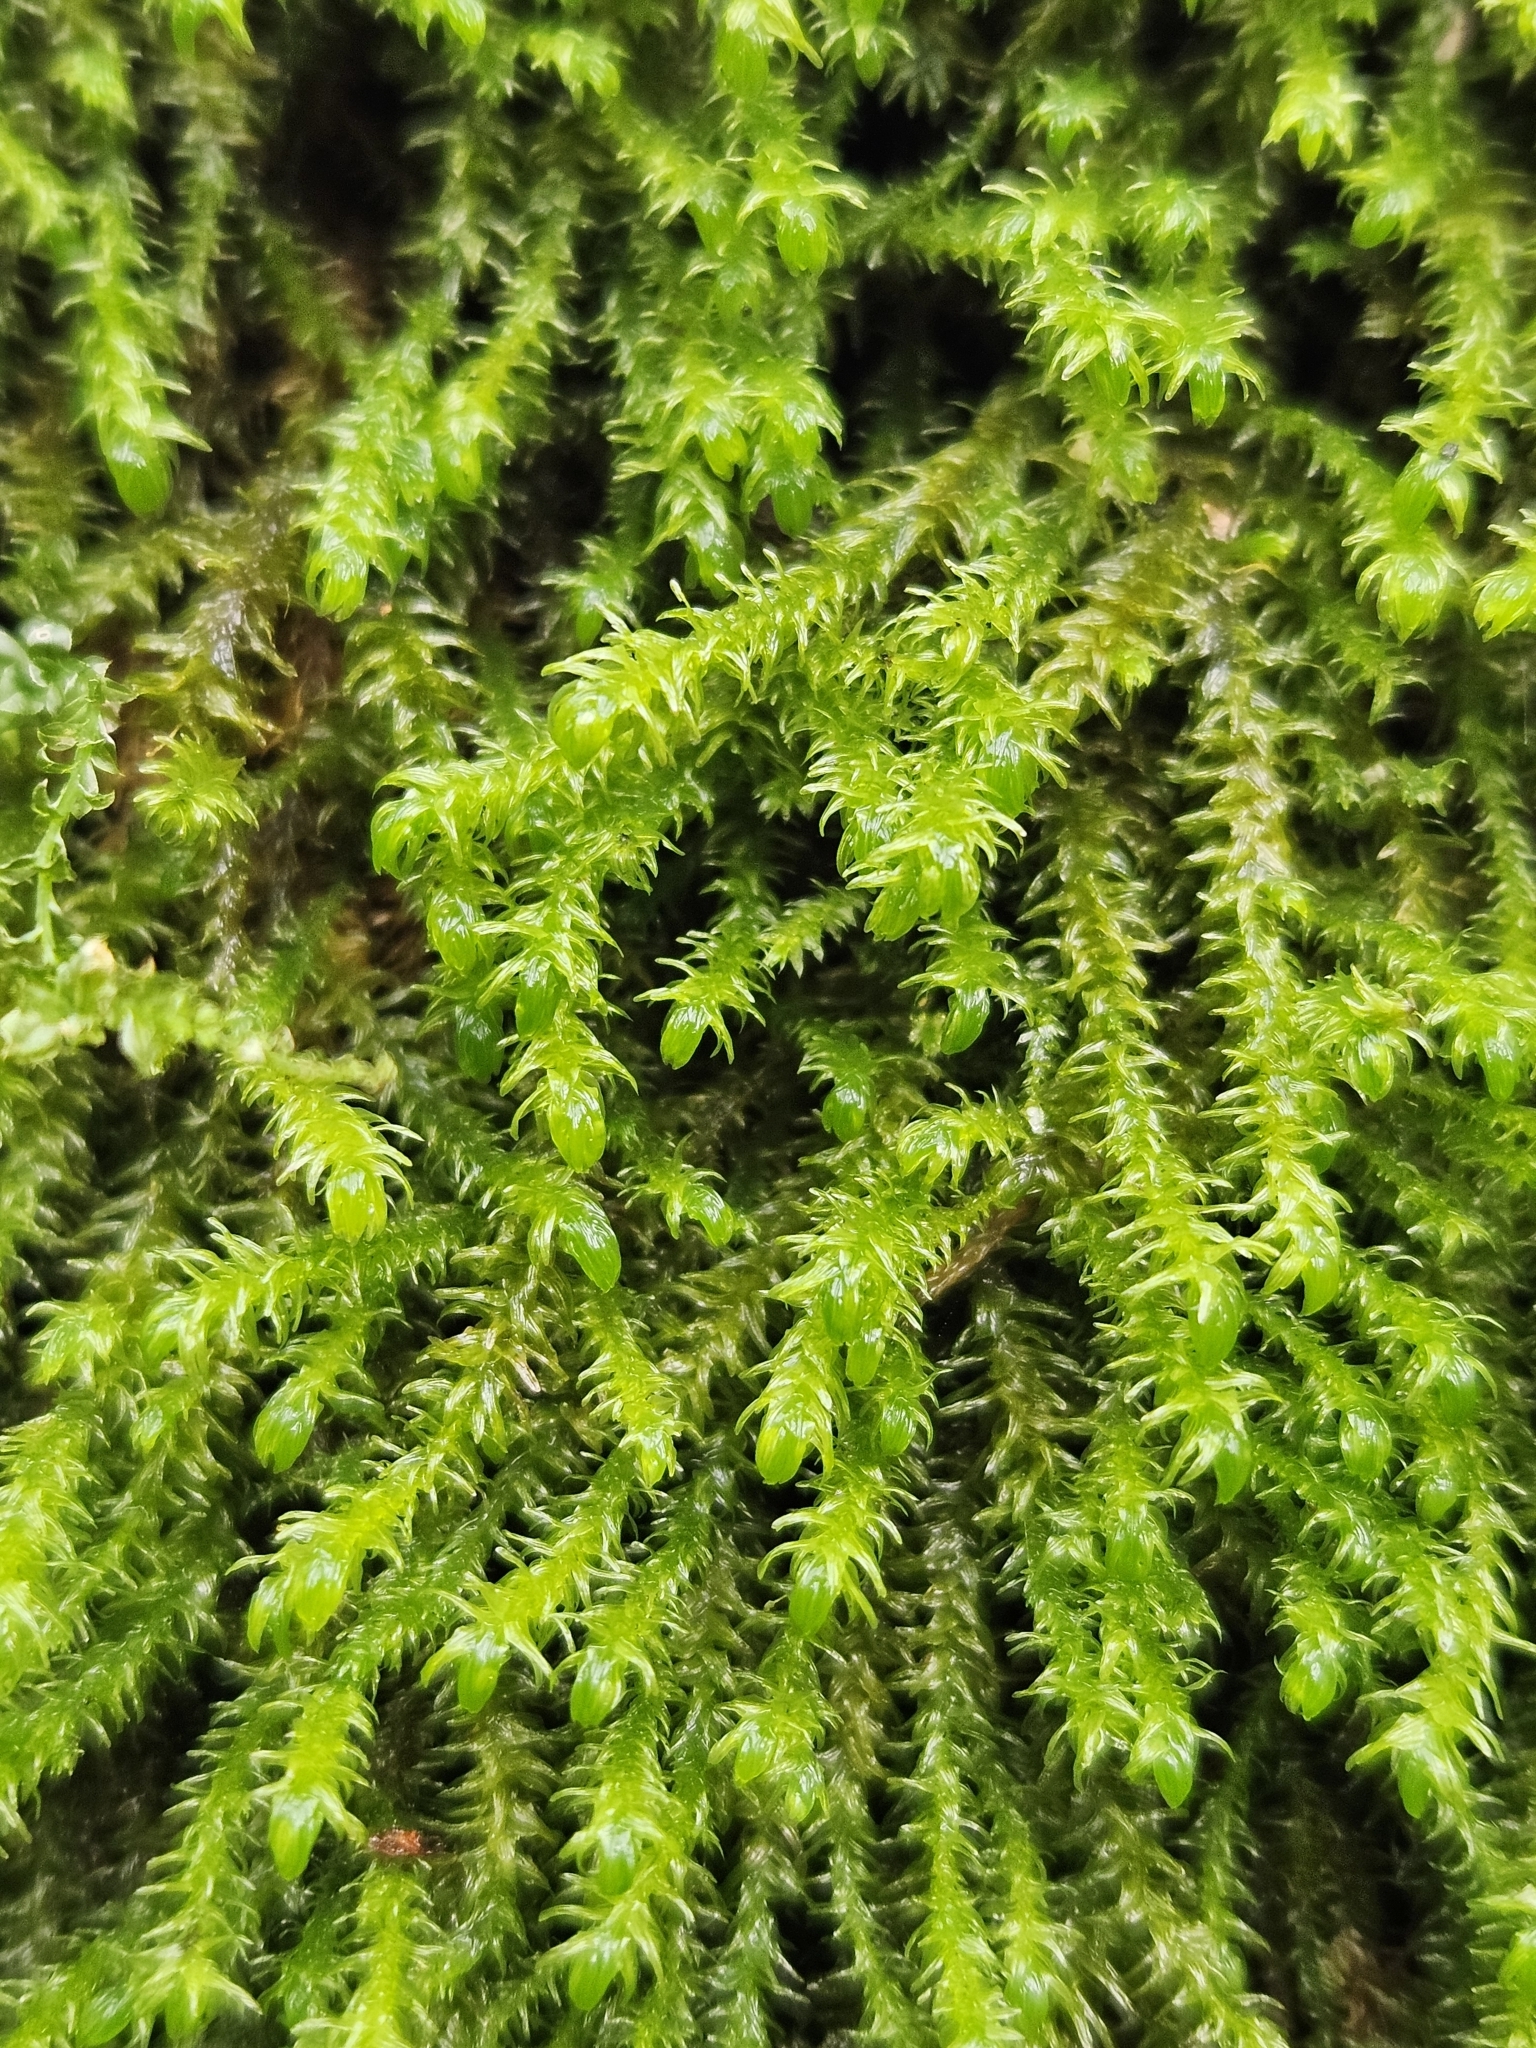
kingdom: Plantae
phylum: Bryophyta
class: Bryopsida
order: Hypnales
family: Anomodontaceae
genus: Anomodon
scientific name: Anomodon viticulosus
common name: Tall anomodon
